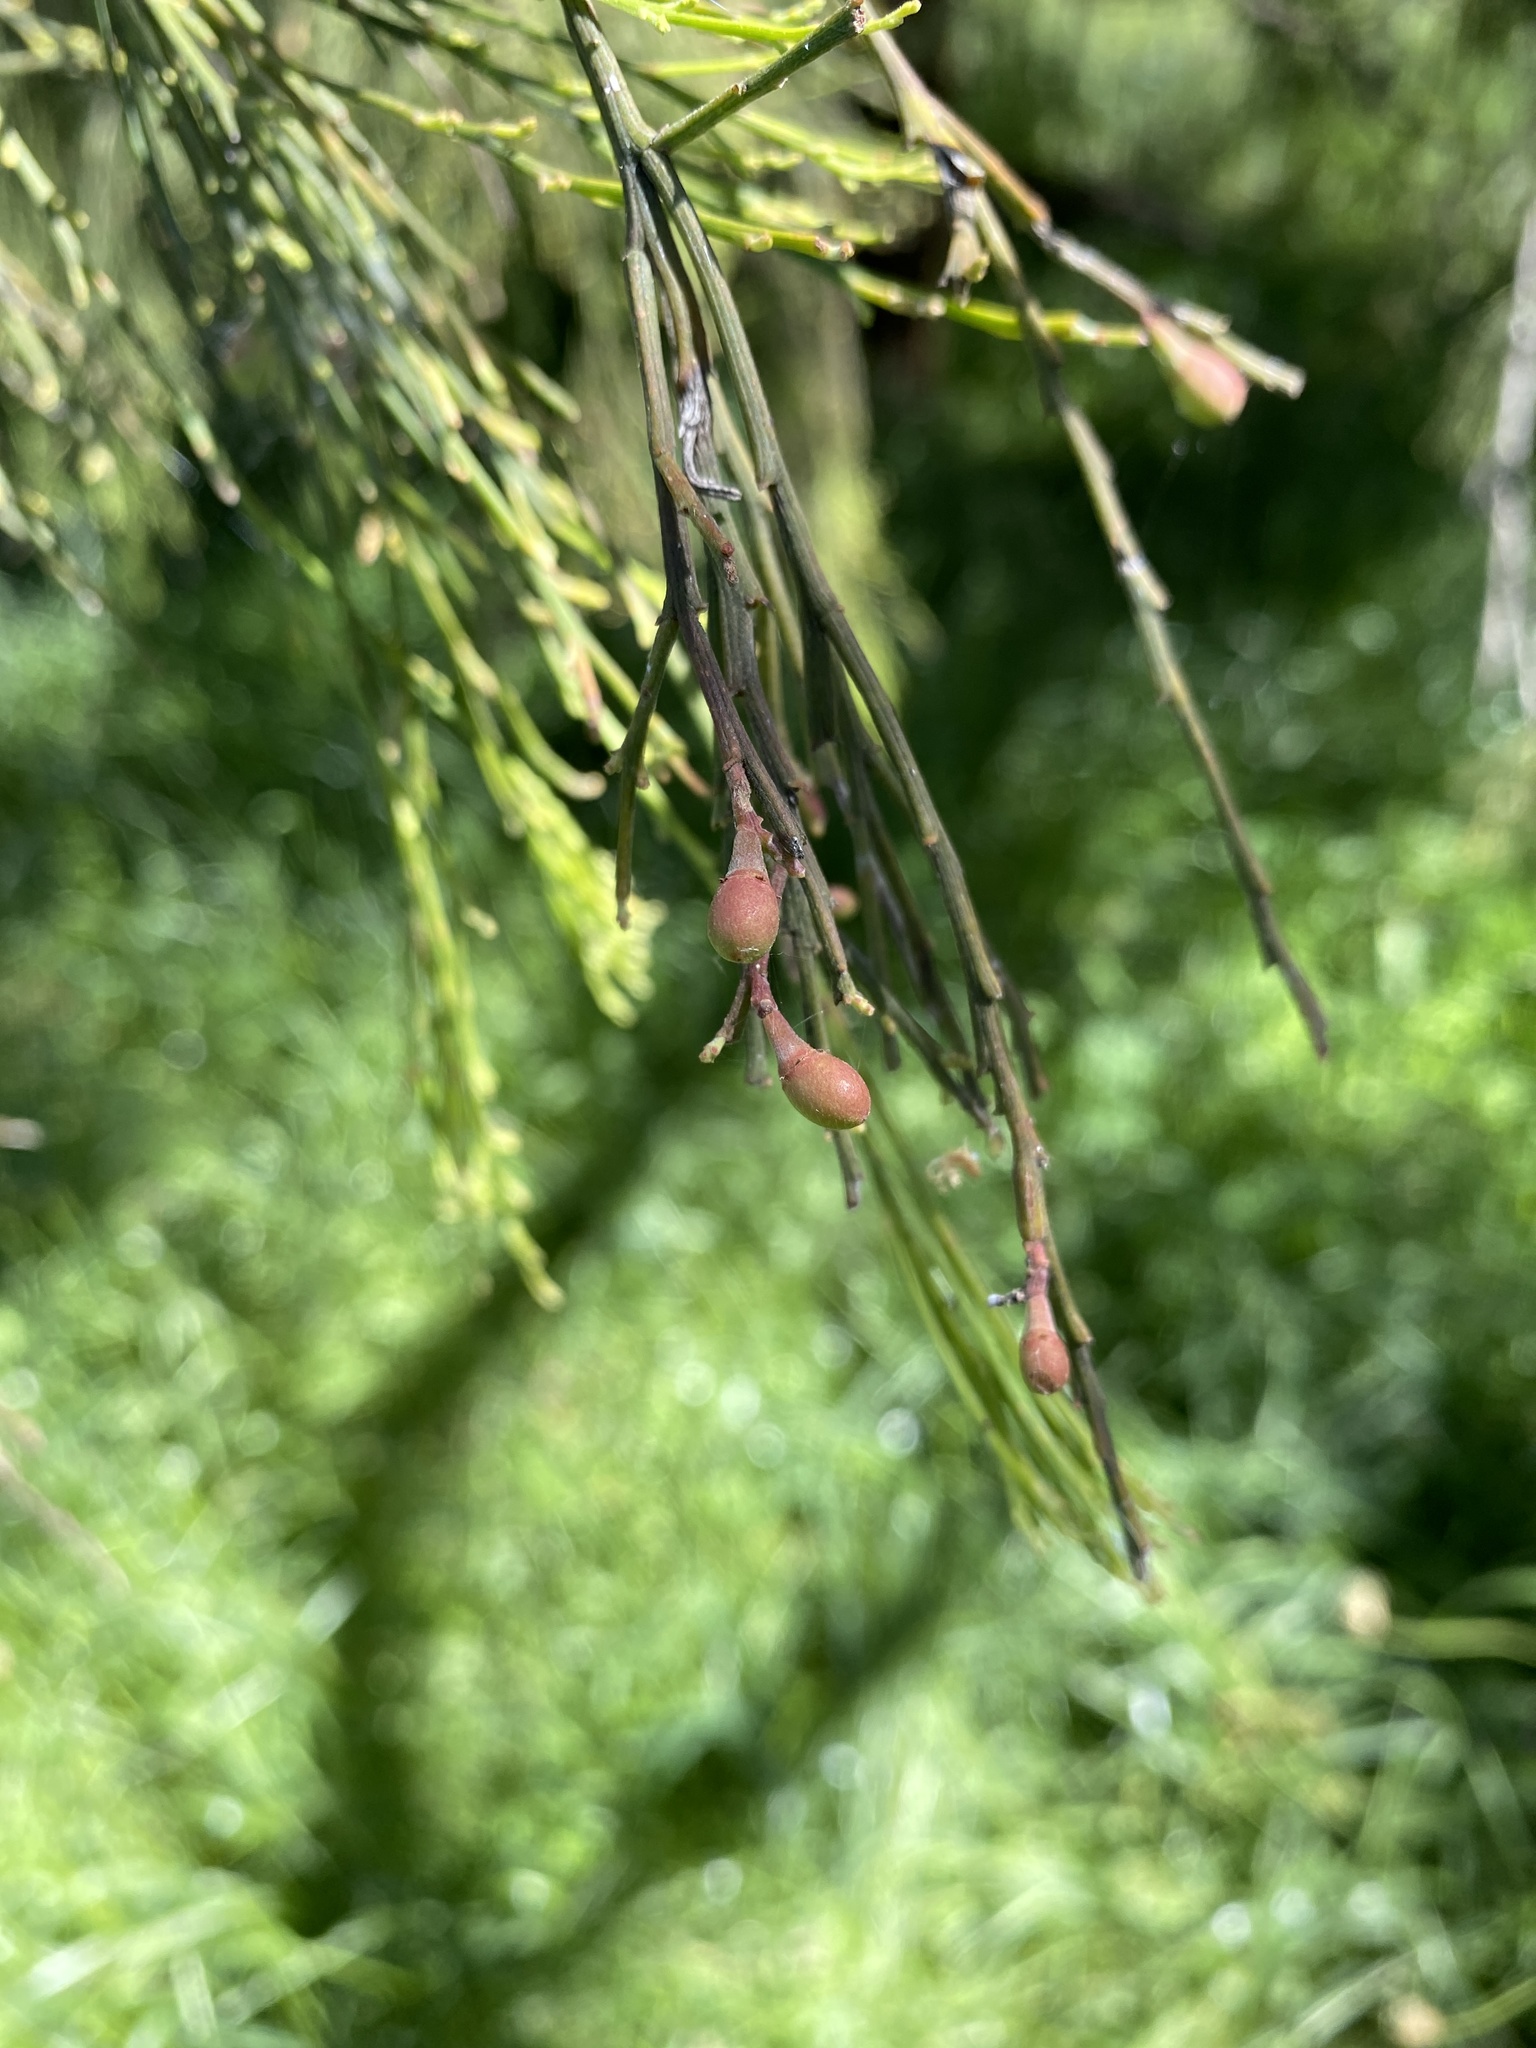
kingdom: Plantae
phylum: Tracheophyta
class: Magnoliopsida
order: Santalales
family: Santalaceae
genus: Exocarpos
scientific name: Exocarpos cupressiformis
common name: Cherry ballart
